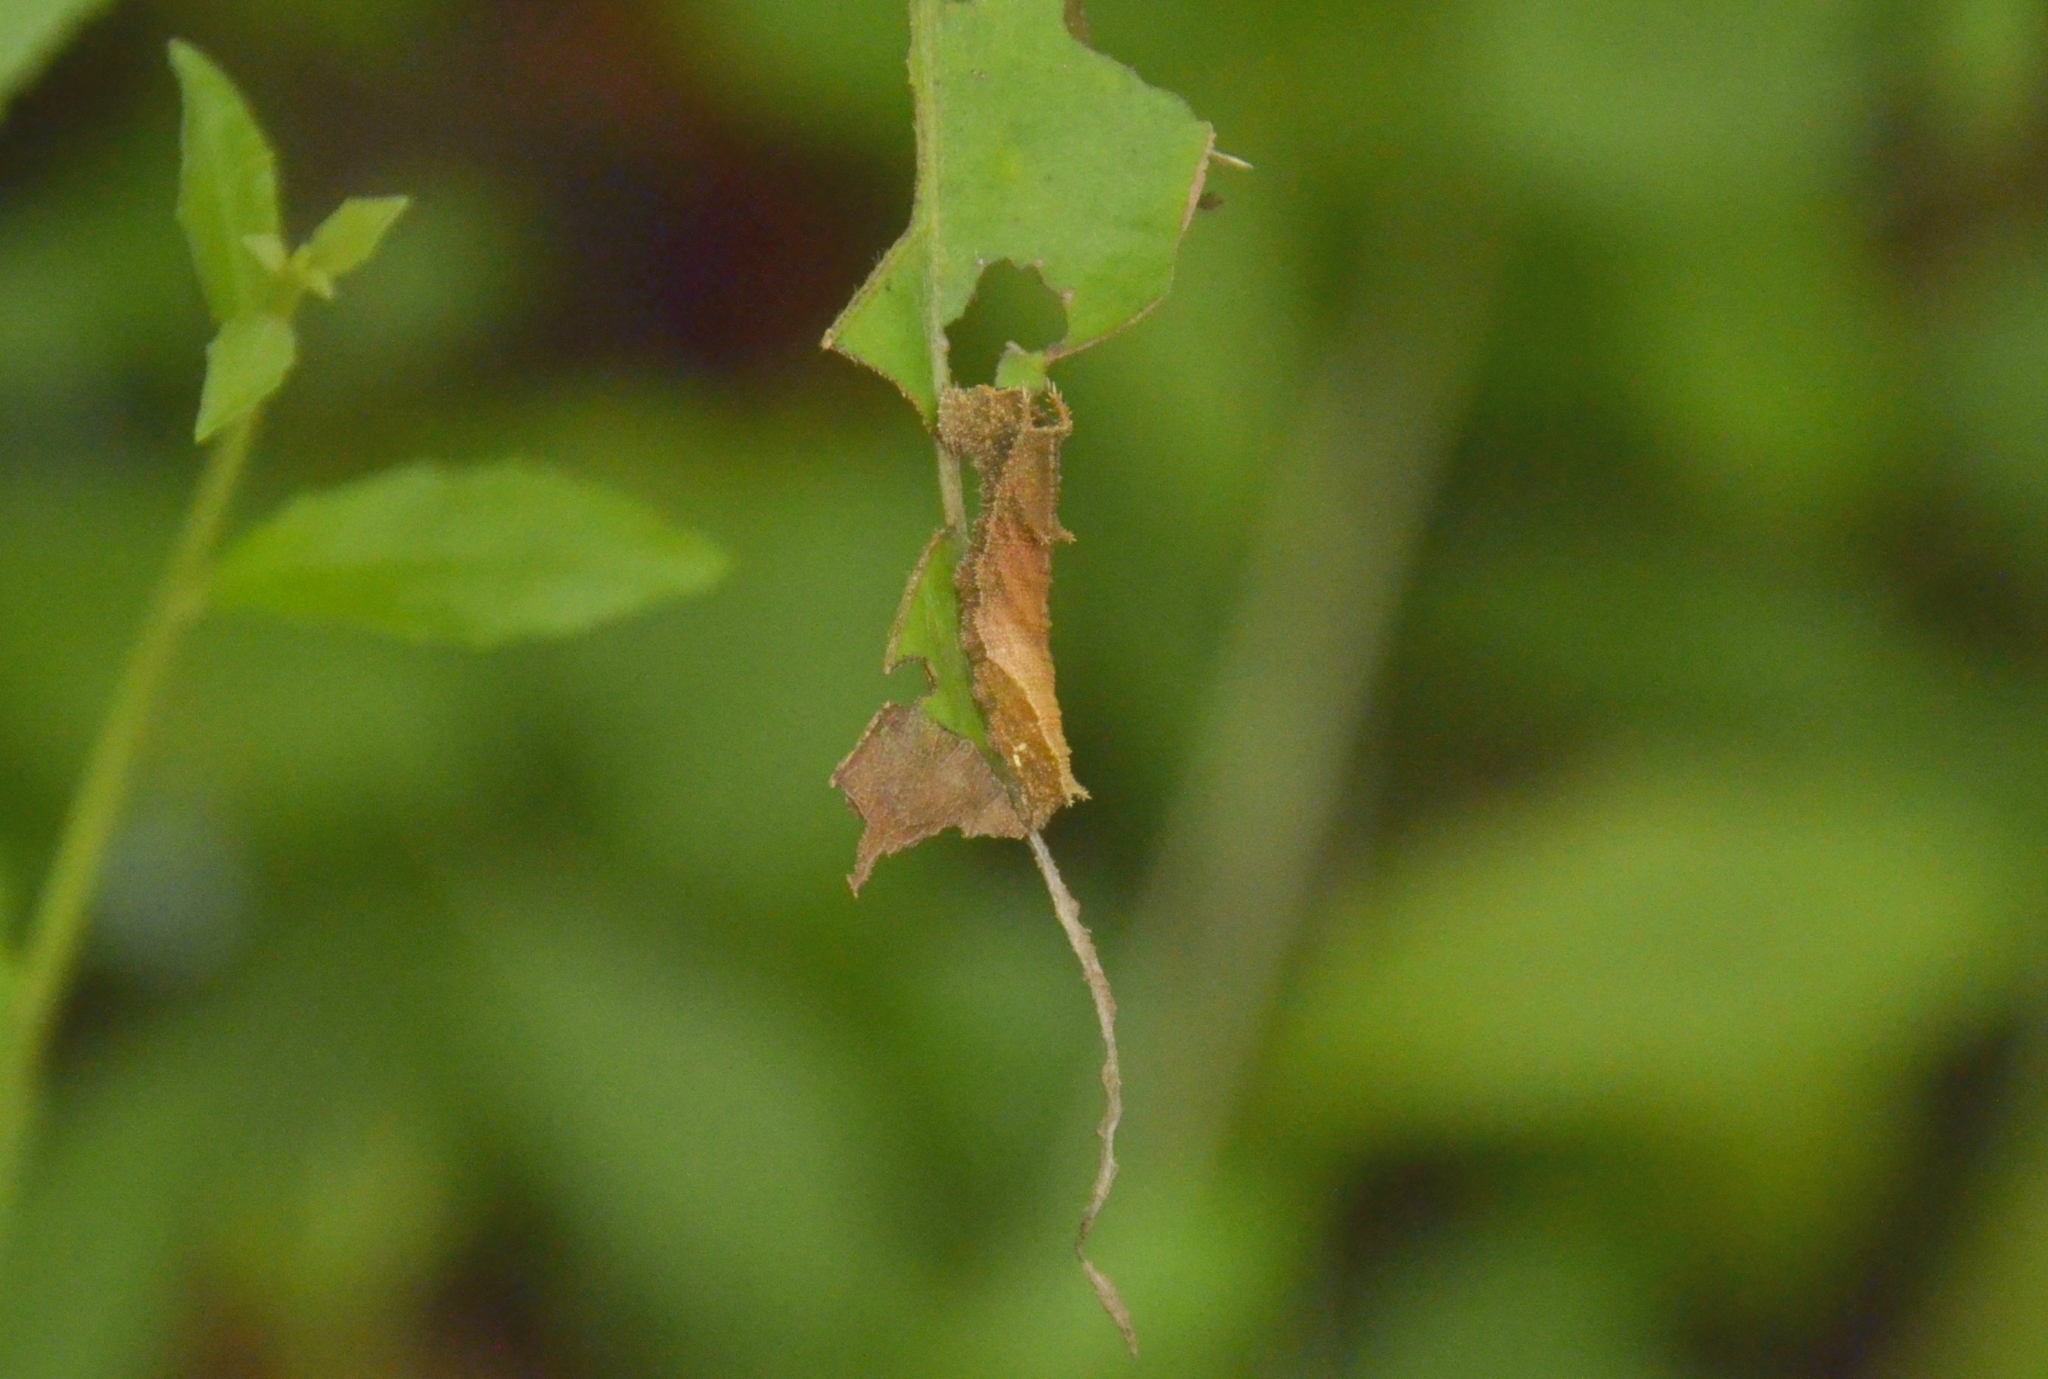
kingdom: Animalia
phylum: Arthropoda
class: Insecta
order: Lepidoptera
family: Nymphalidae
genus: Neptis
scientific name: Neptis jumbah
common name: Chestnut-streaked sailer
